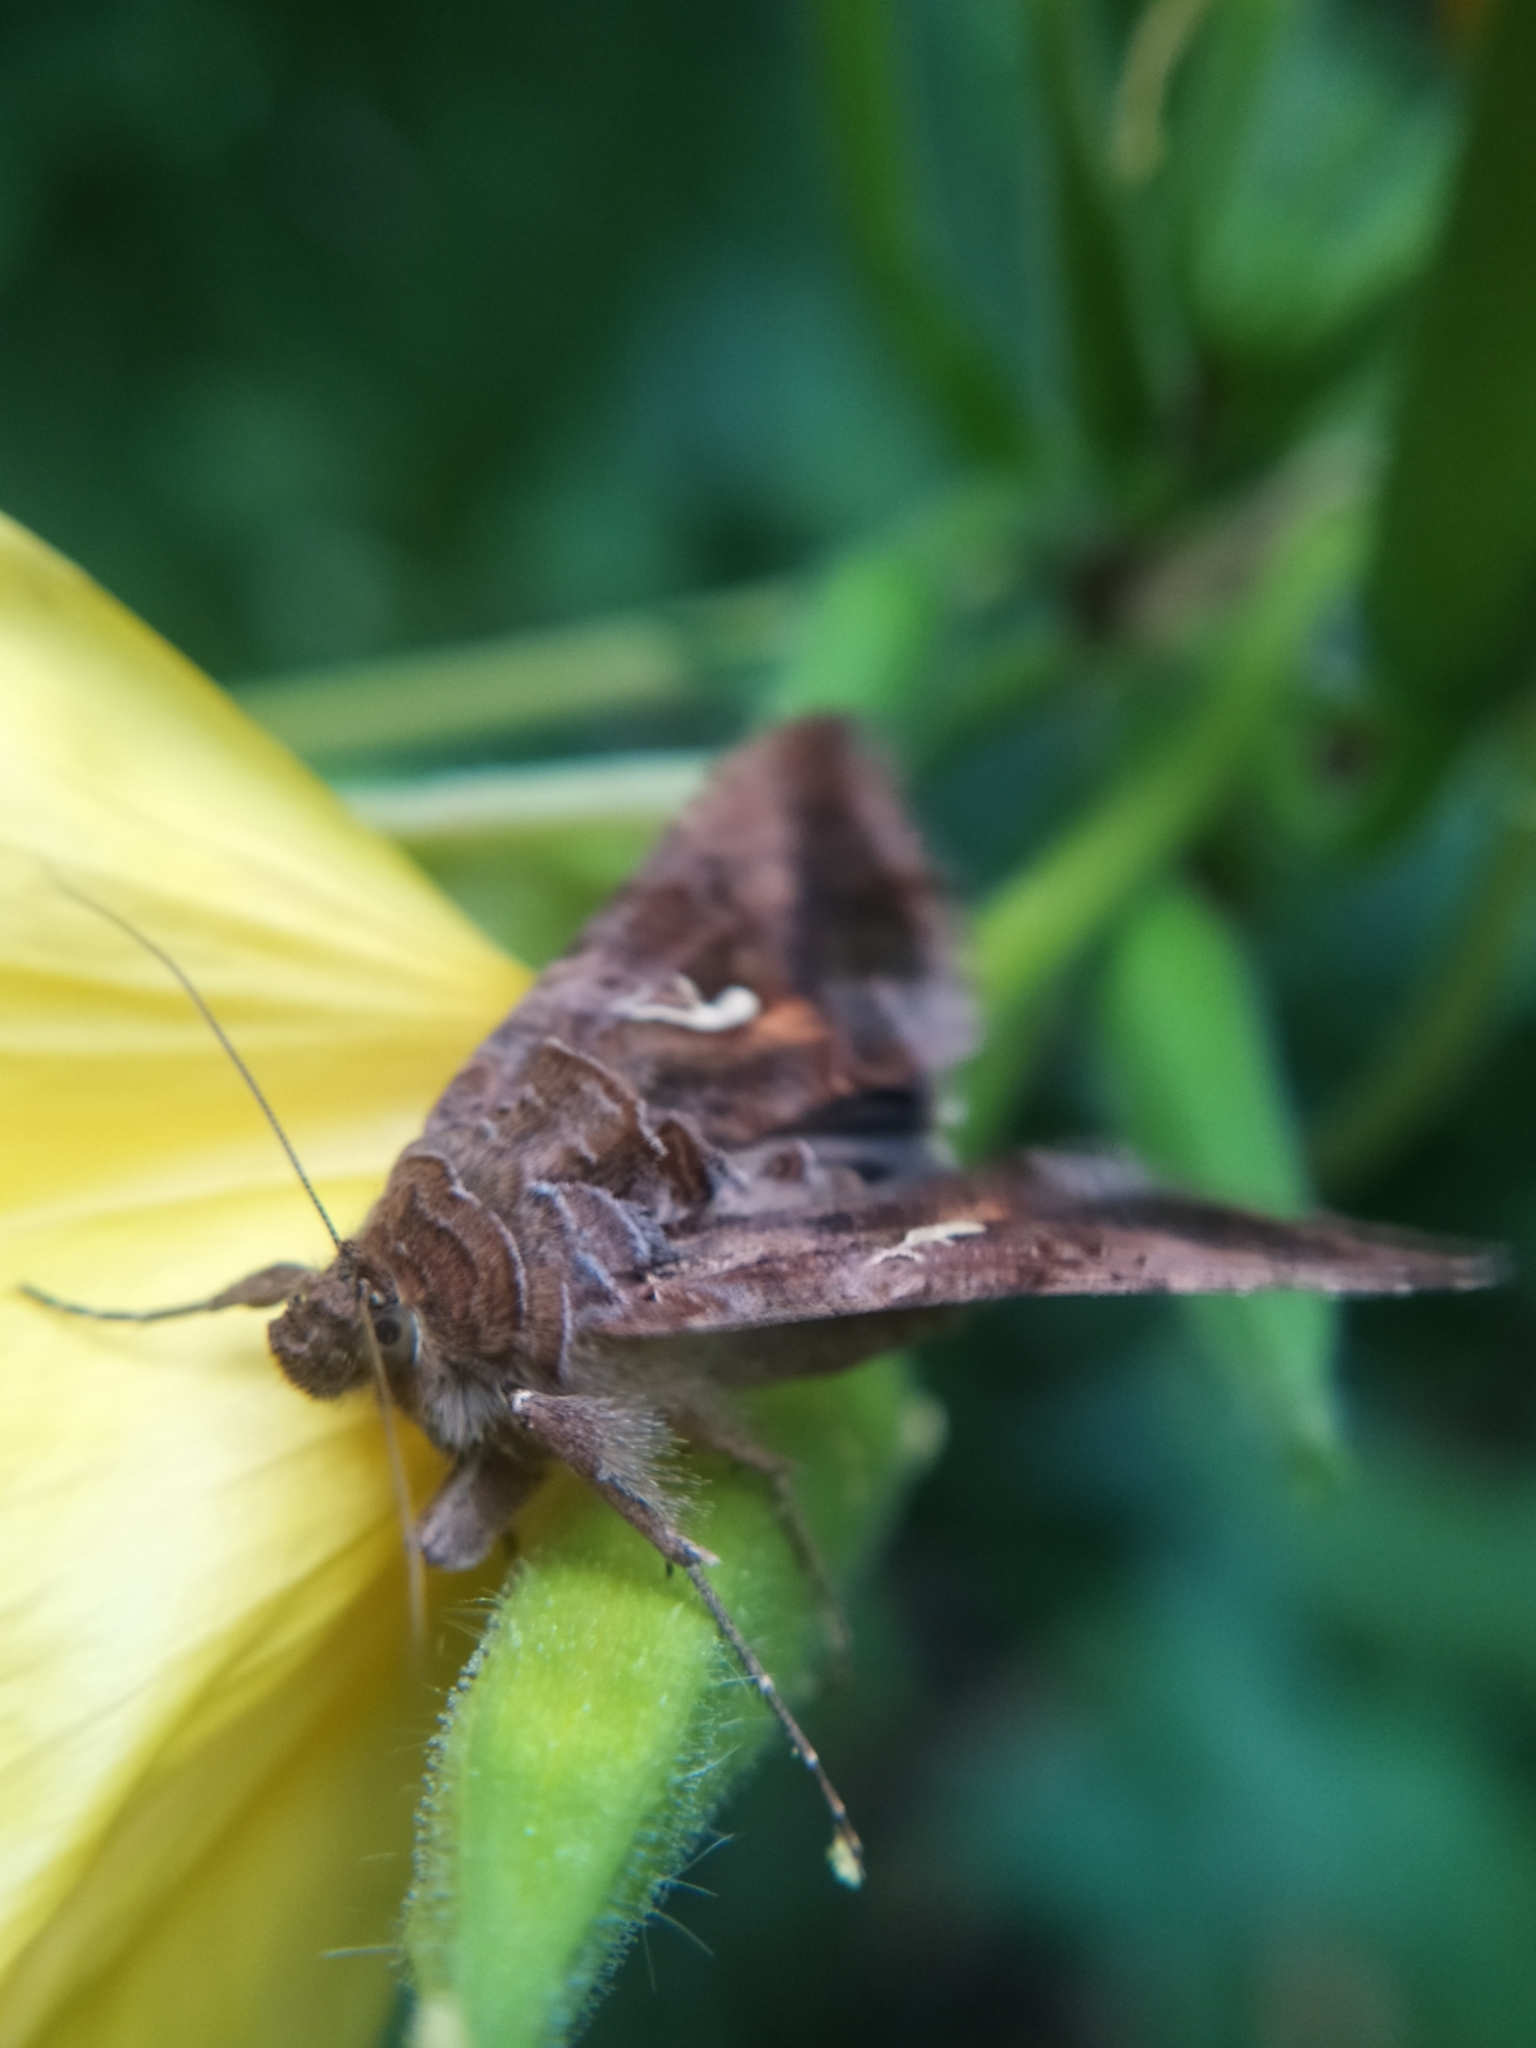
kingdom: Animalia
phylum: Arthropoda
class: Insecta
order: Lepidoptera
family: Noctuidae
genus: Autographa
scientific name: Autographa gamma
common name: Silver y
